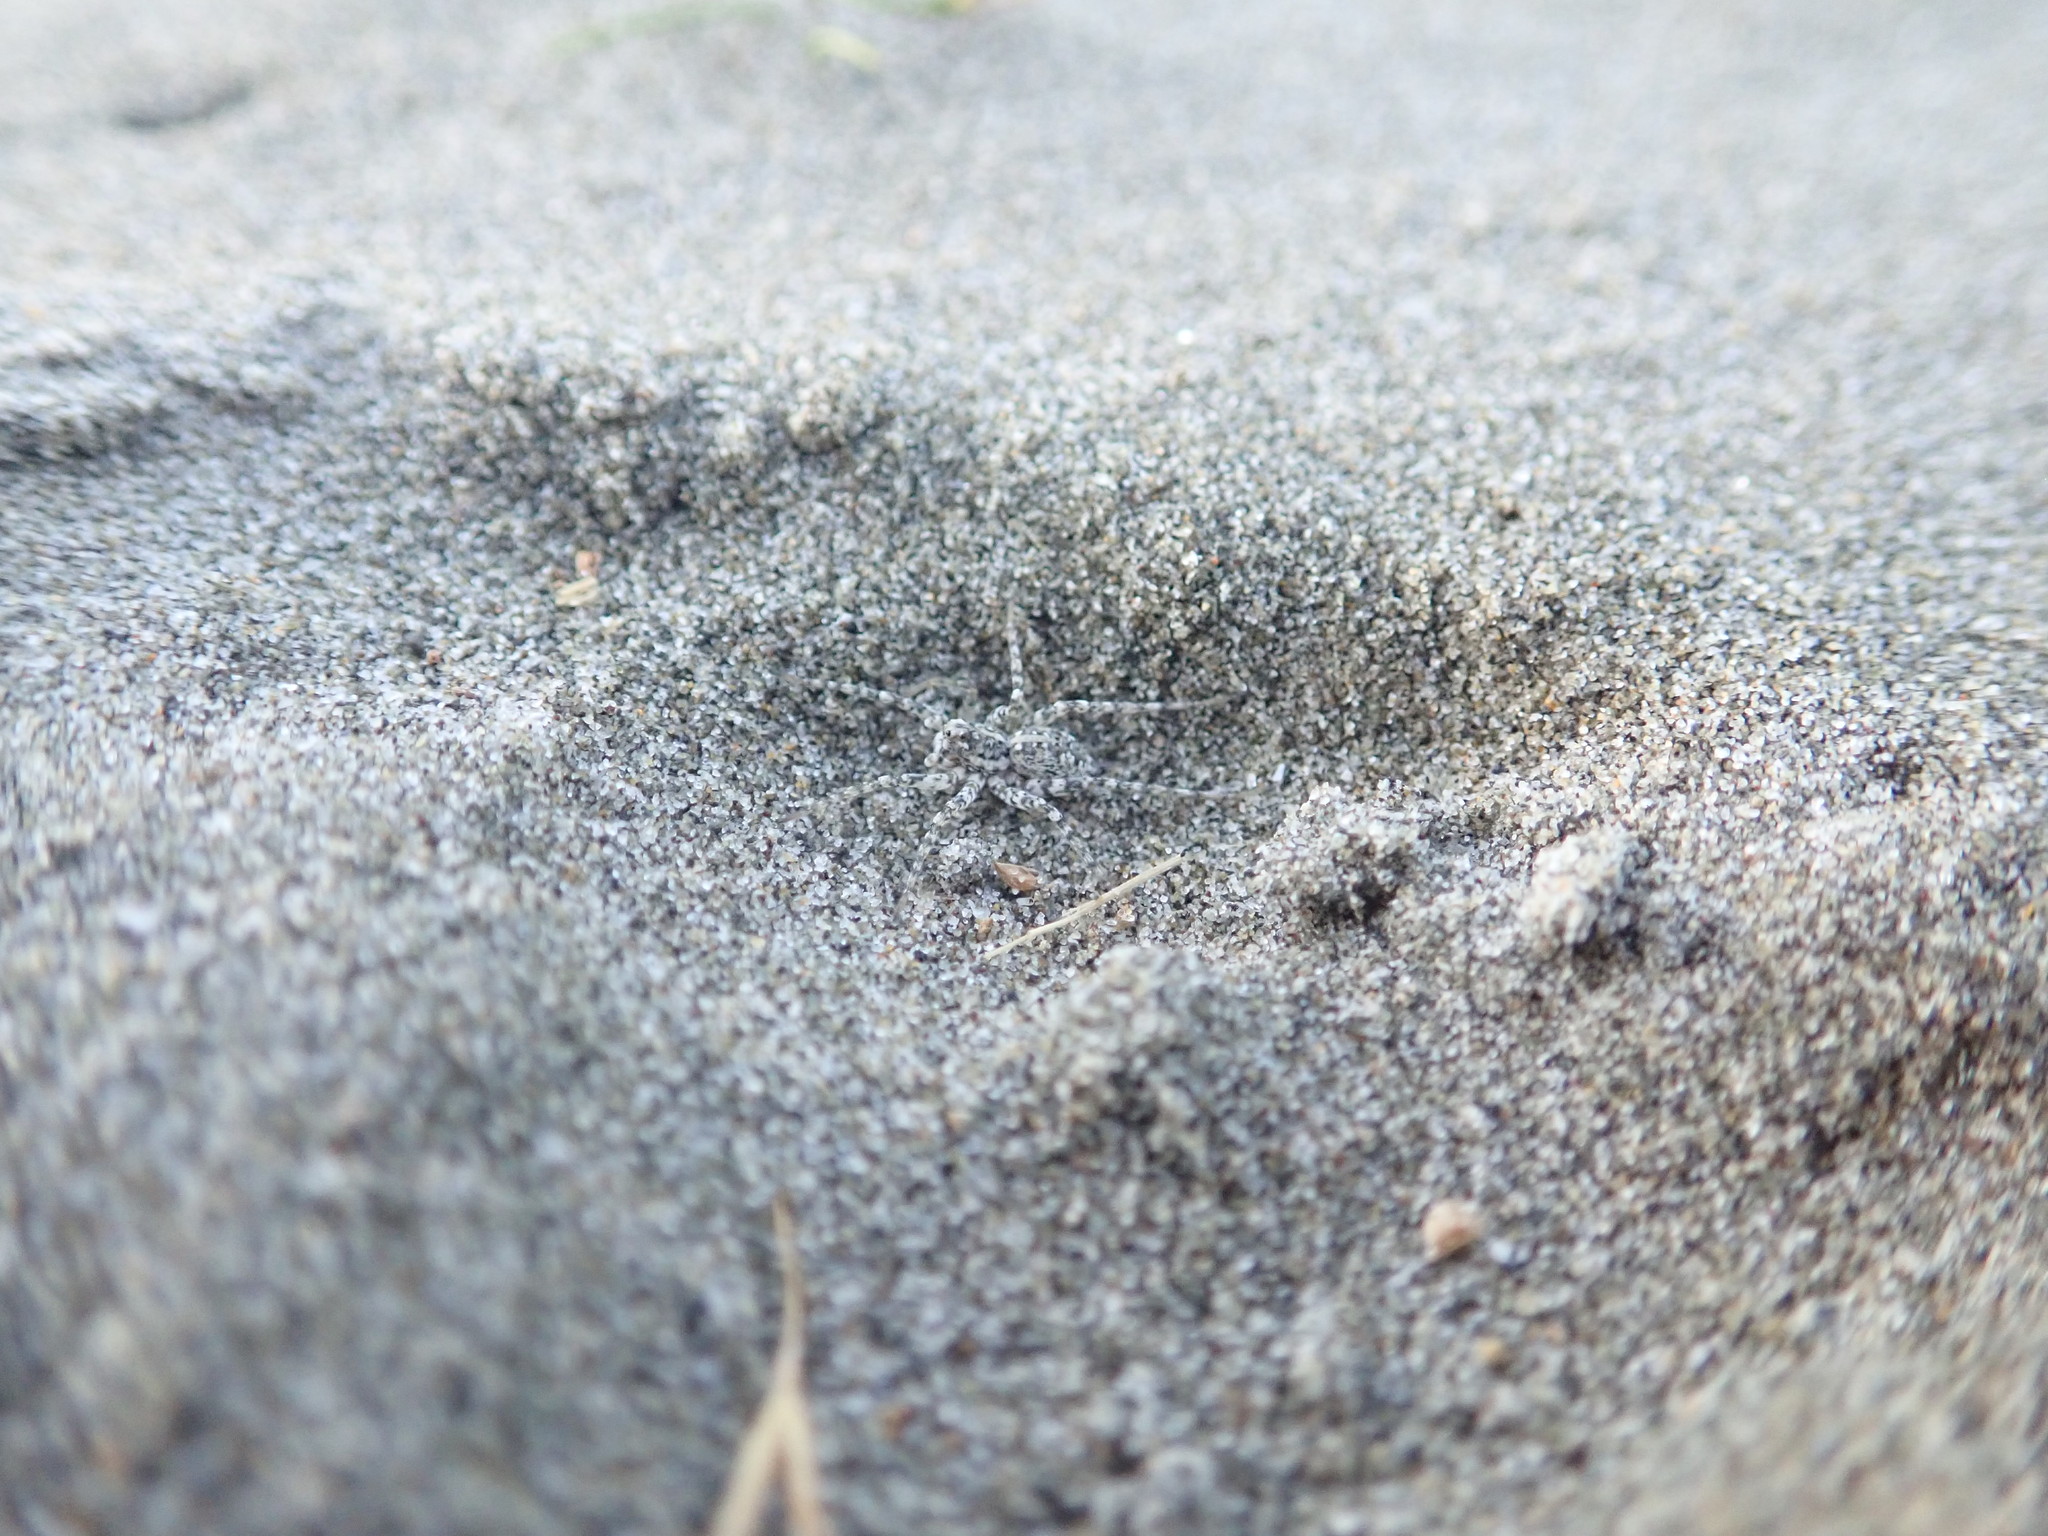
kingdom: Animalia
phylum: Arthropoda
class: Arachnida
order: Araneae
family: Lycosidae
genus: Anoteropsis
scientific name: Anoteropsis litoralis
